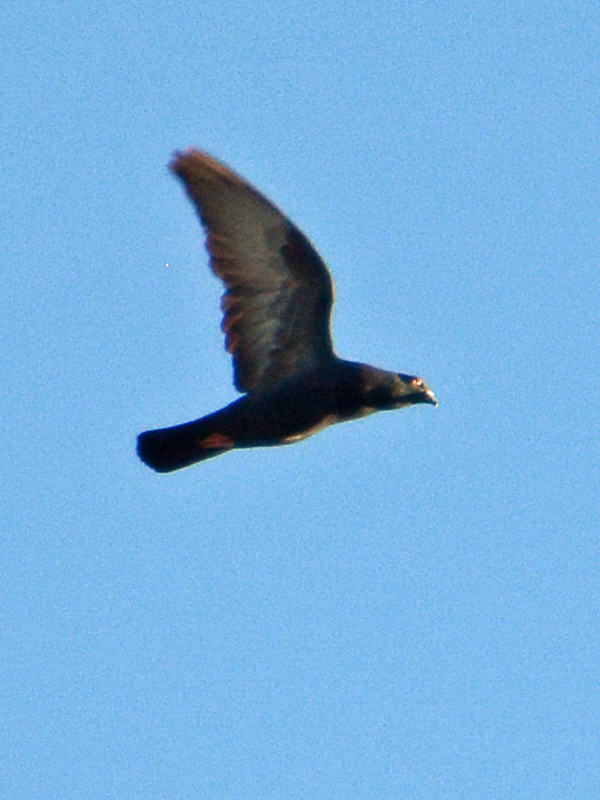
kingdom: Animalia
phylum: Chordata
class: Aves
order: Columbiformes
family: Columbidae
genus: Columba
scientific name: Columba livia
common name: Rock pigeon
